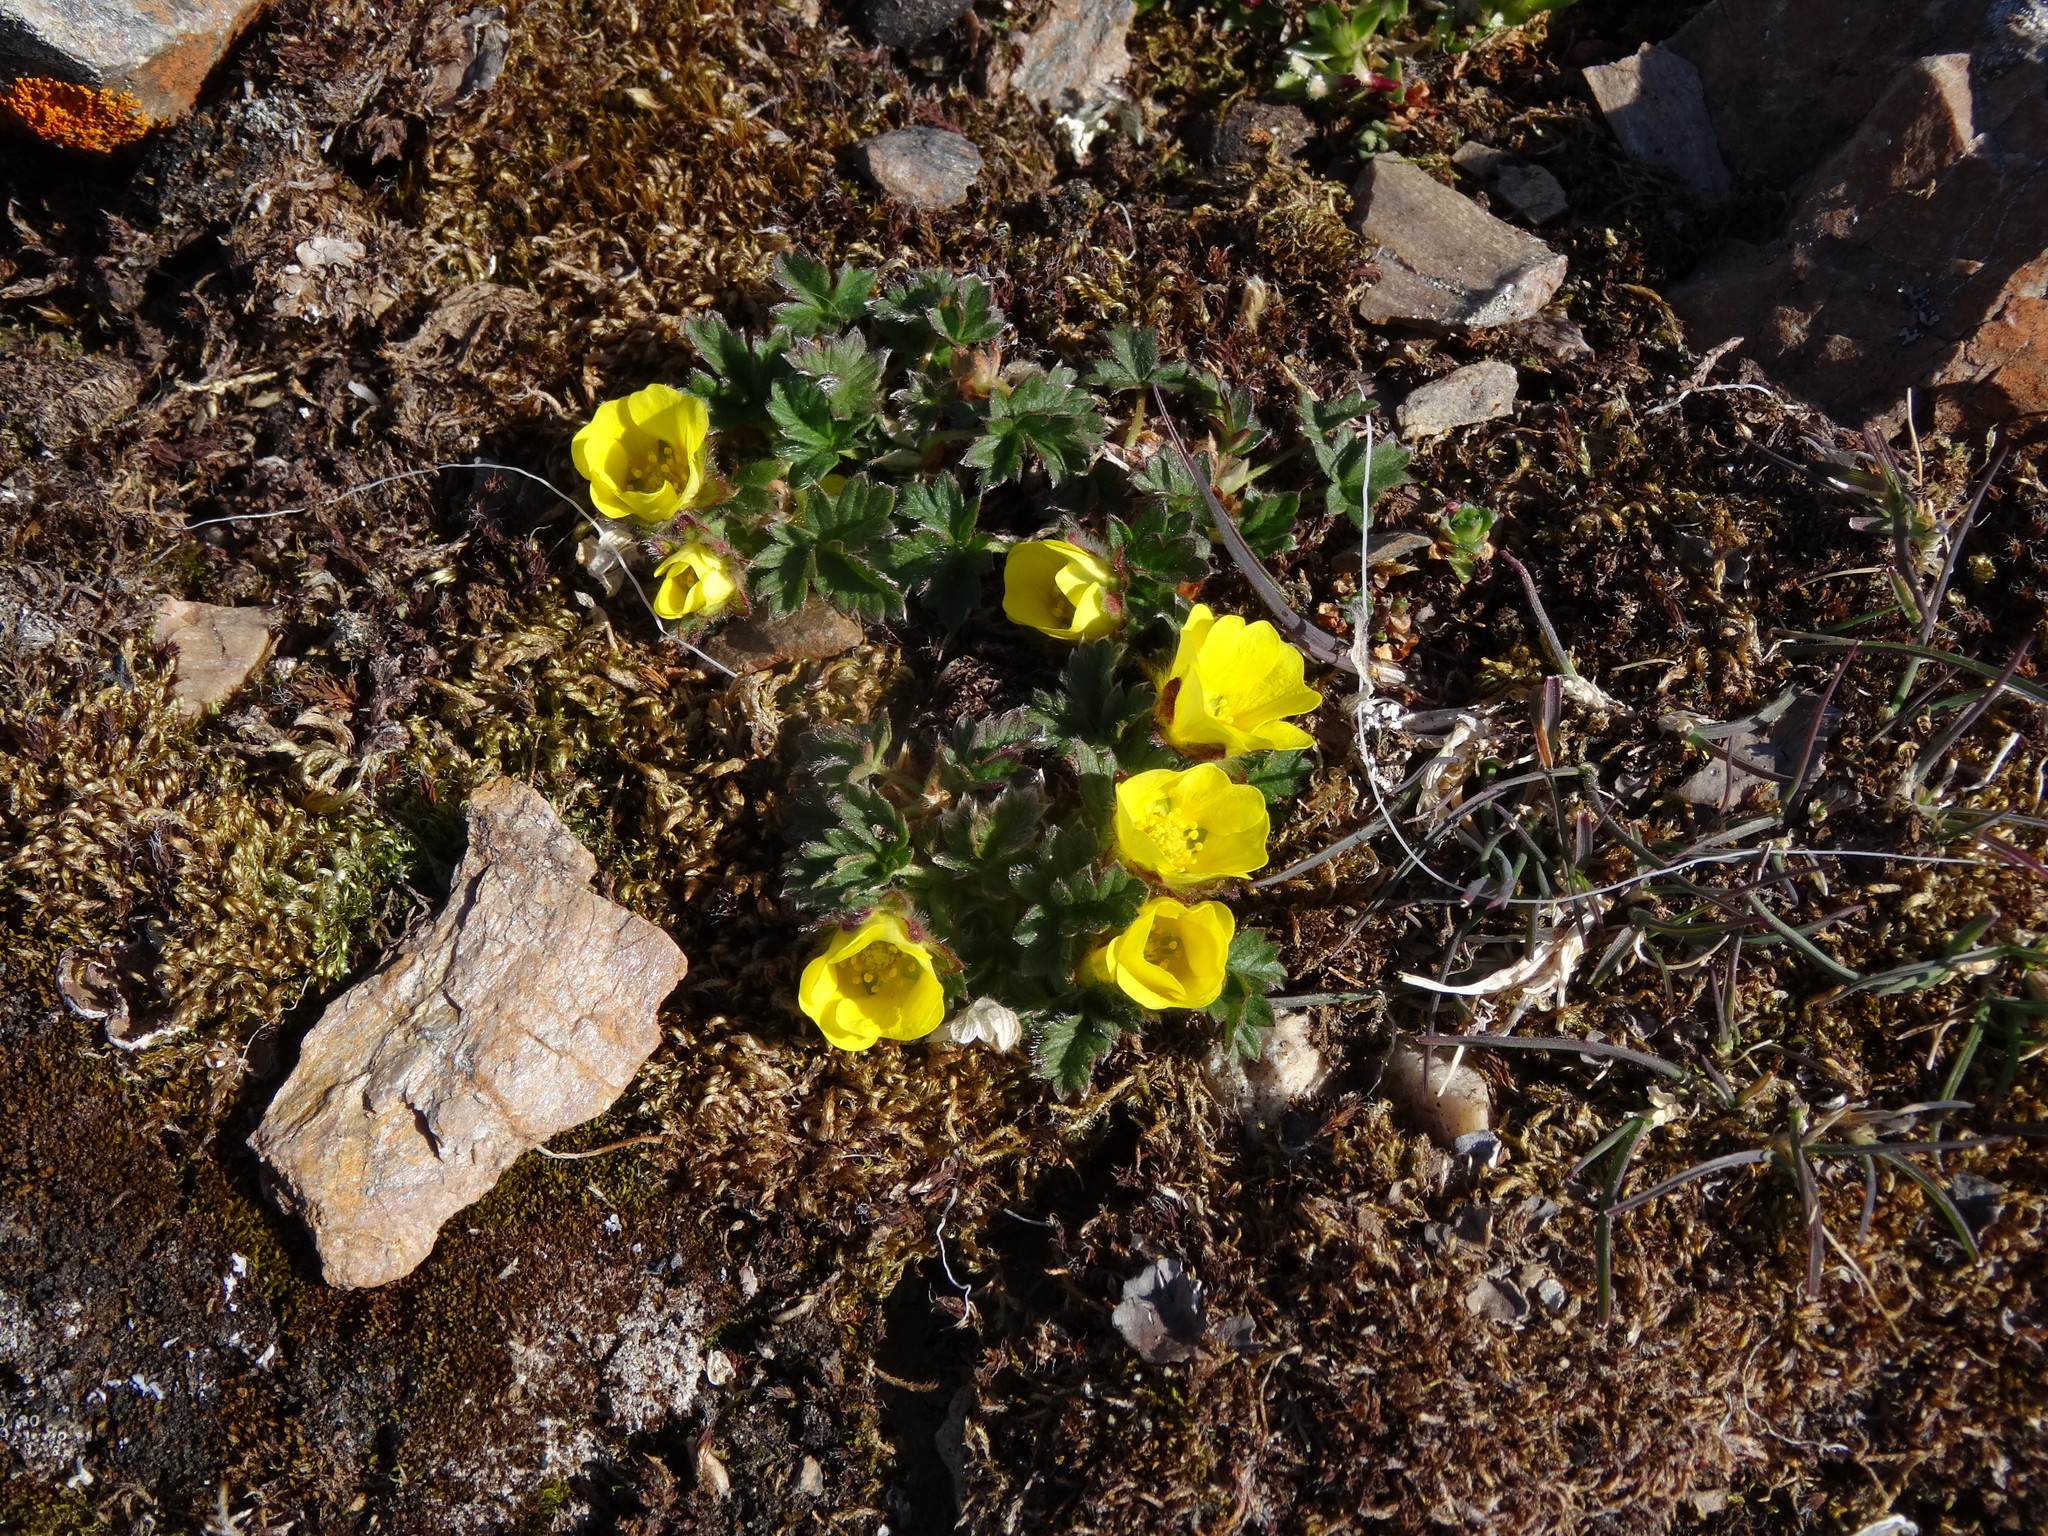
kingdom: Plantae
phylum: Tracheophyta
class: Magnoliopsida
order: Rosales
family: Rosaceae
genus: Potentilla
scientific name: Potentilla hyparctica
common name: Arctic cinquefoil
